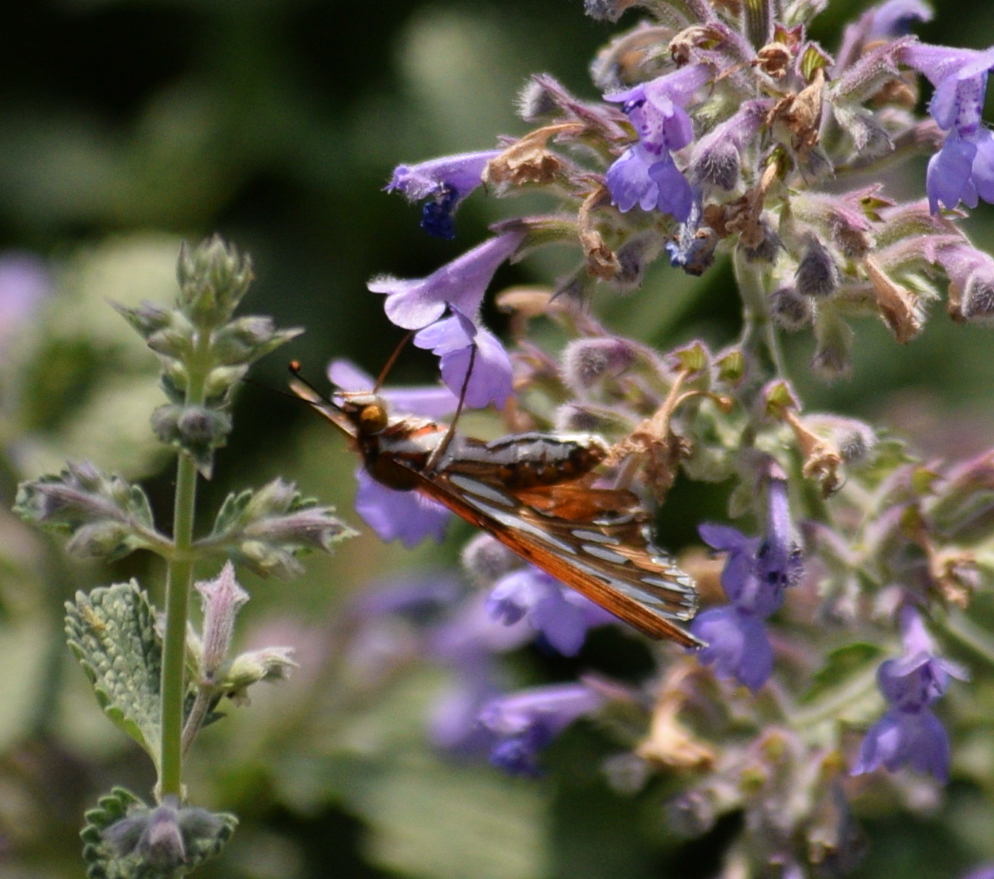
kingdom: Animalia
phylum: Arthropoda
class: Insecta
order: Lepidoptera
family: Nymphalidae
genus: Dione
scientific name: Dione vanillae
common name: Gulf fritillary
